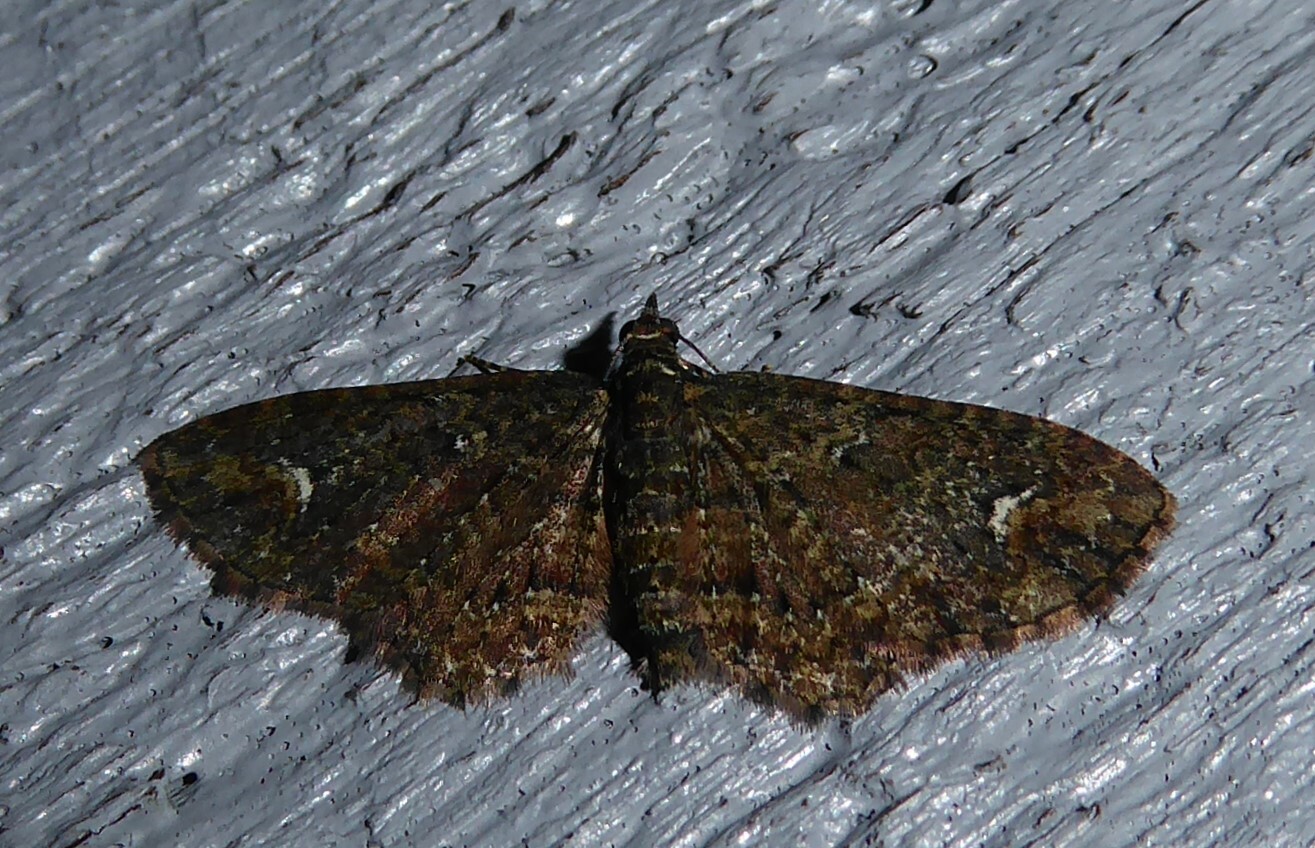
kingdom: Animalia
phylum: Arthropoda
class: Insecta
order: Lepidoptera
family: Geometridae
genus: Pasiphilodes
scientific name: Pasiphilodes testulata
